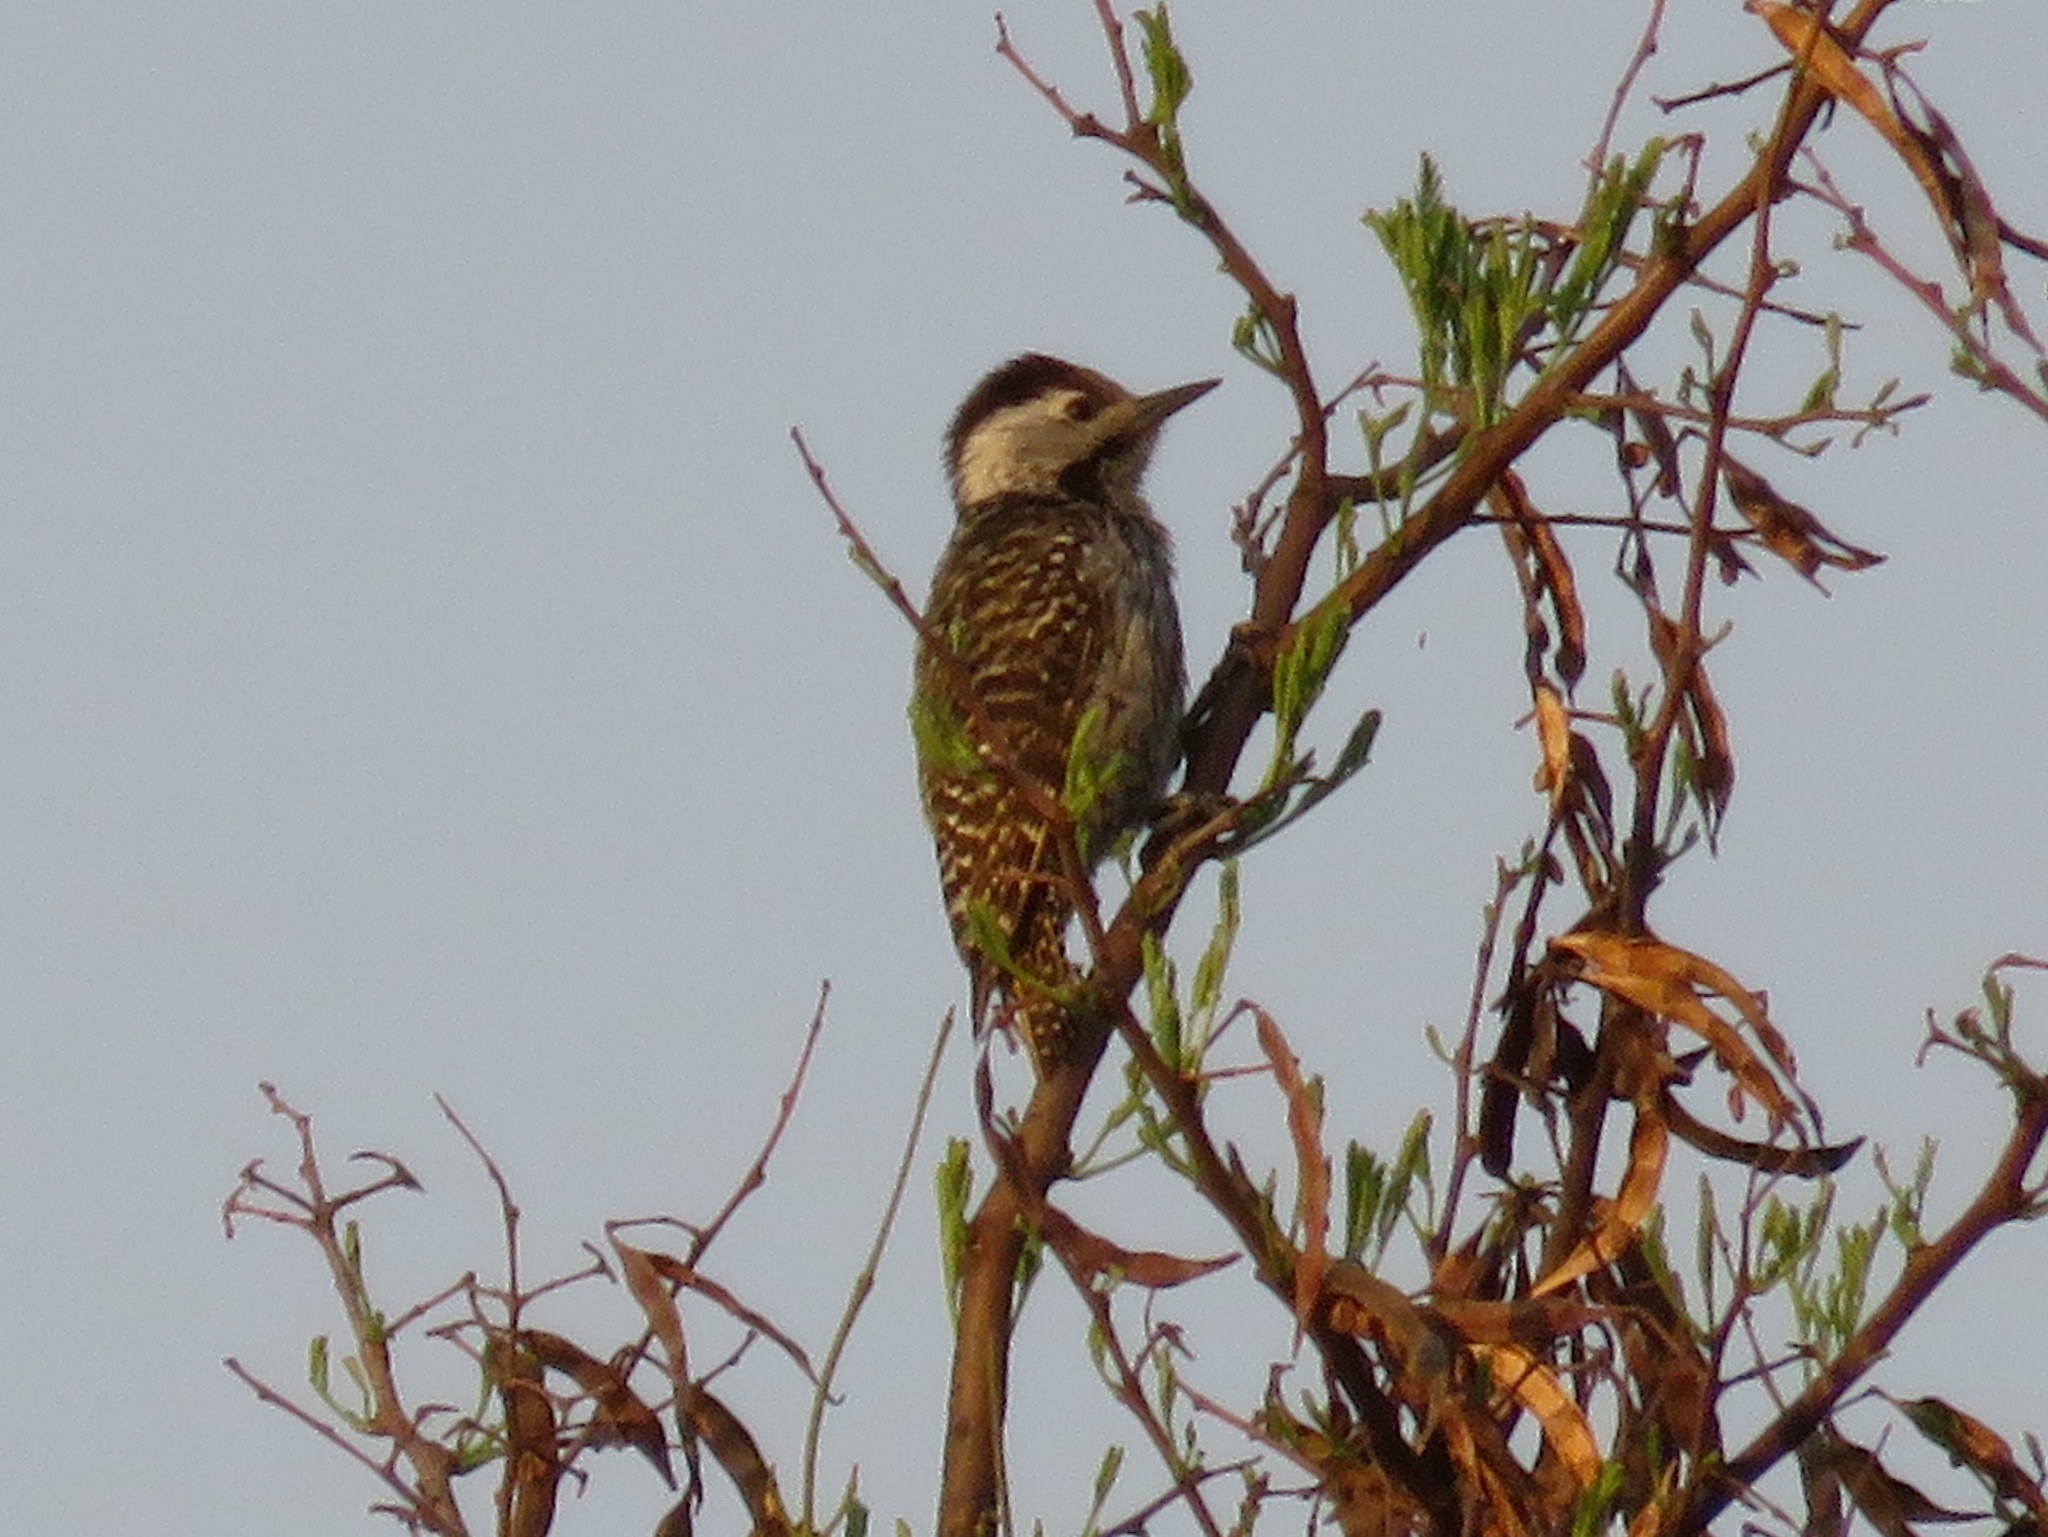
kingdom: Animalia
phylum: Chordata
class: Aves
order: Piciformes
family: Picidae
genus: Dendropicos
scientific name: Dendropicos fuscescens
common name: Cardinal woodpecker
